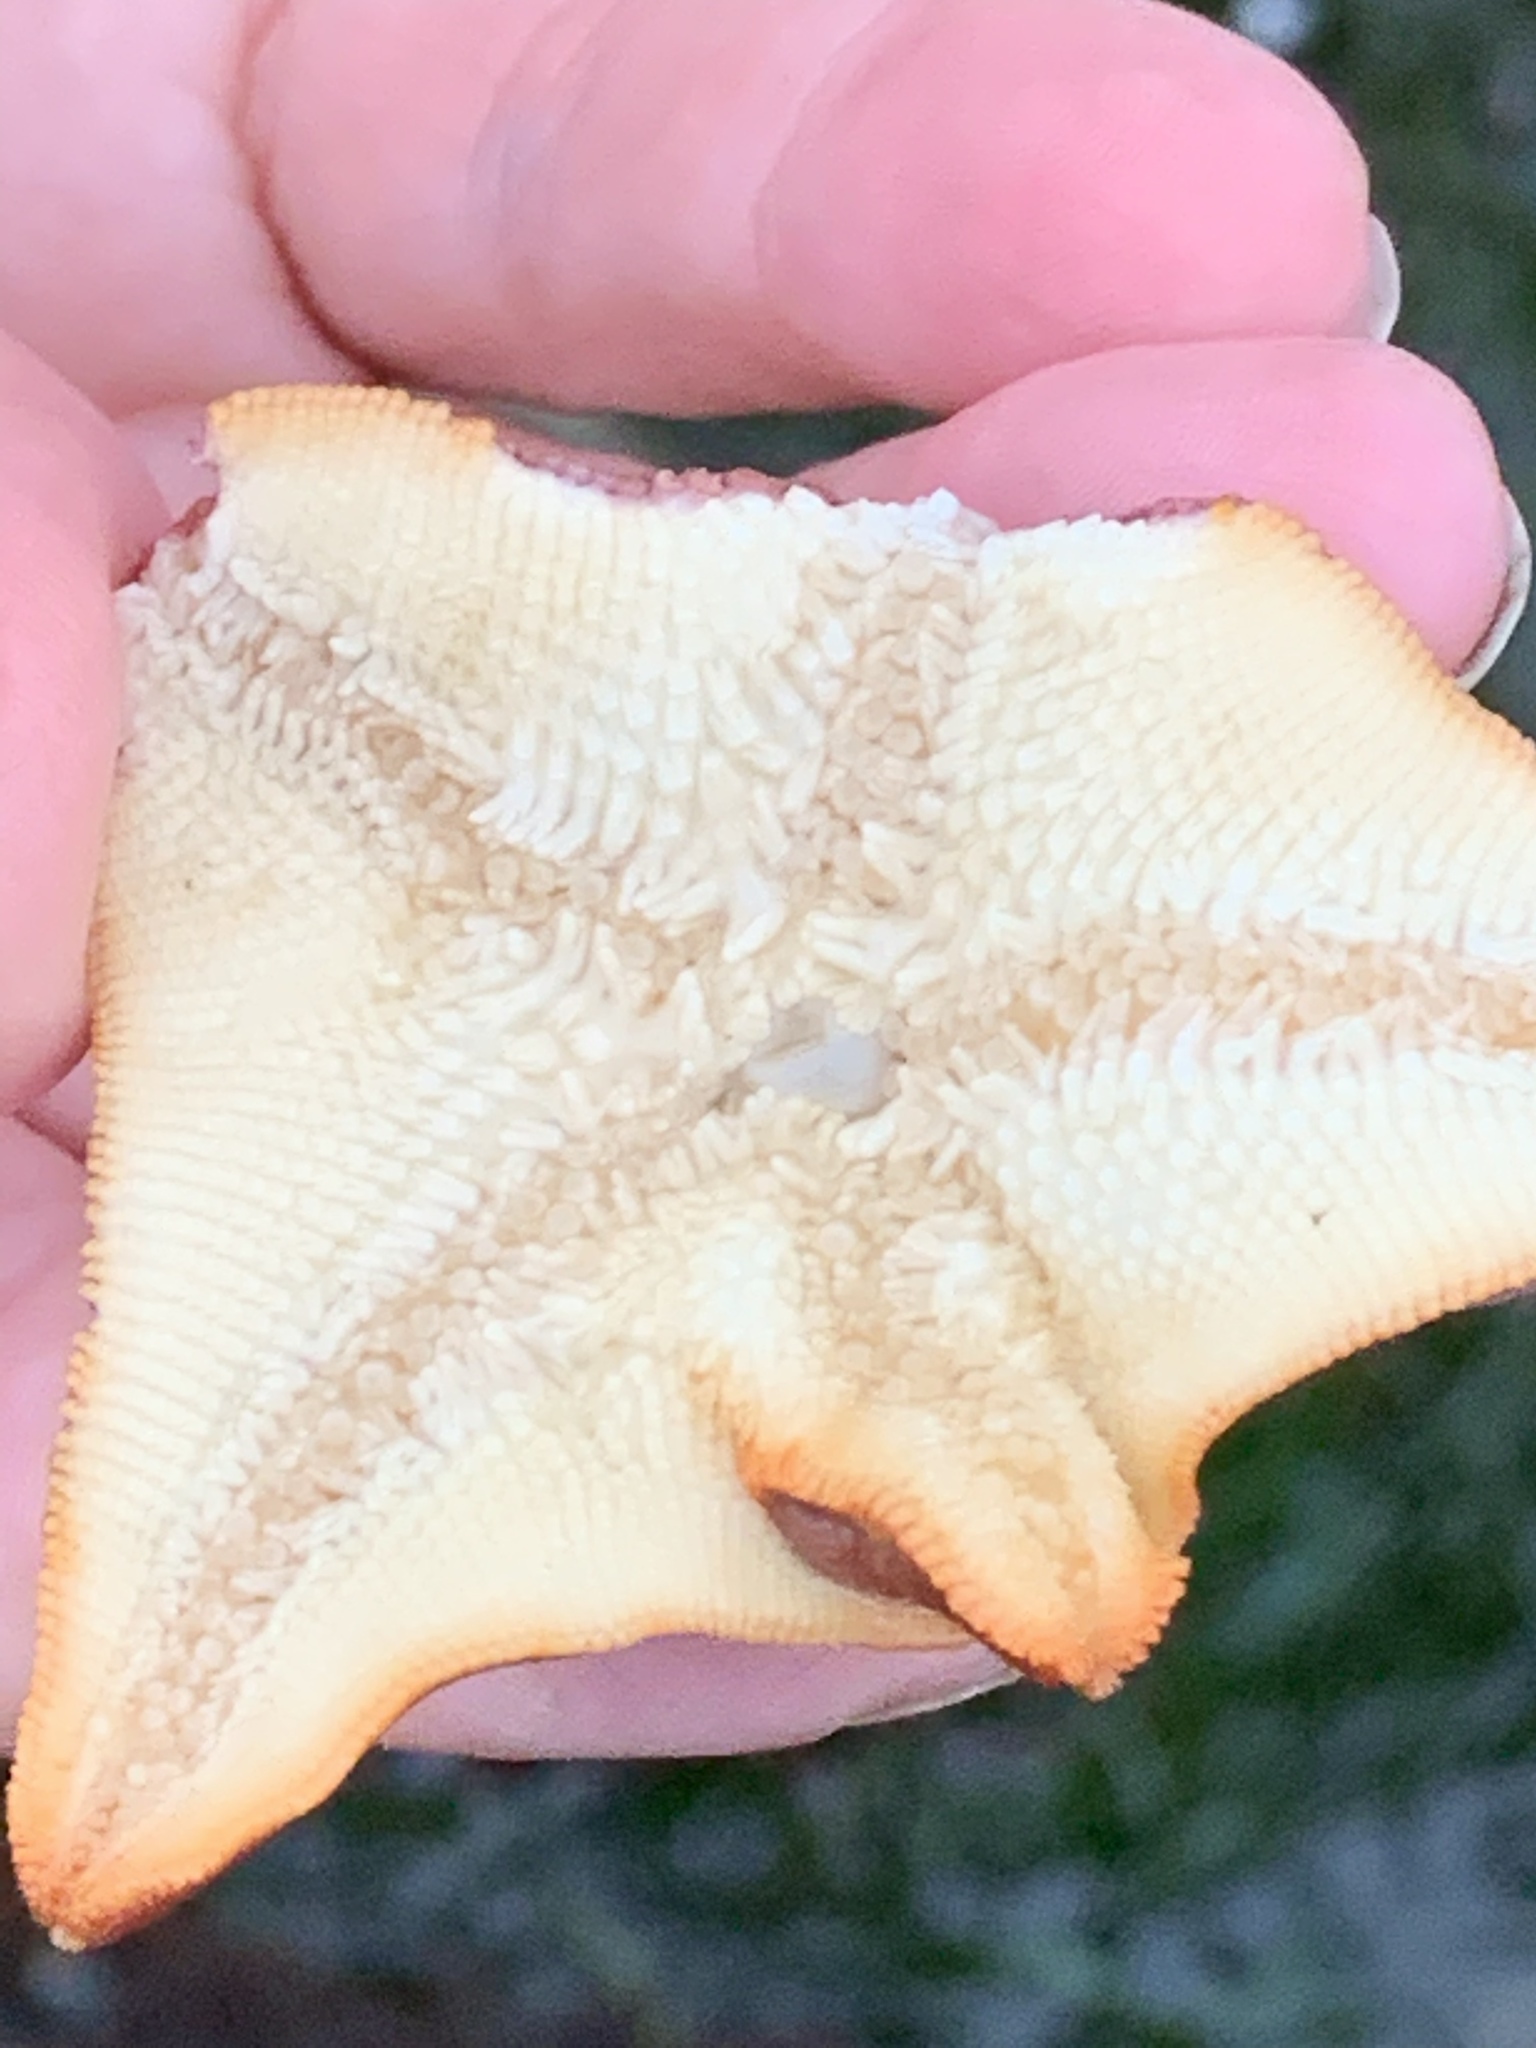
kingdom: Animalia
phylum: Echinodermata
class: Asteroidea
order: Valvatida
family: Asterinidae
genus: Patiria
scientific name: Patiria miniata
